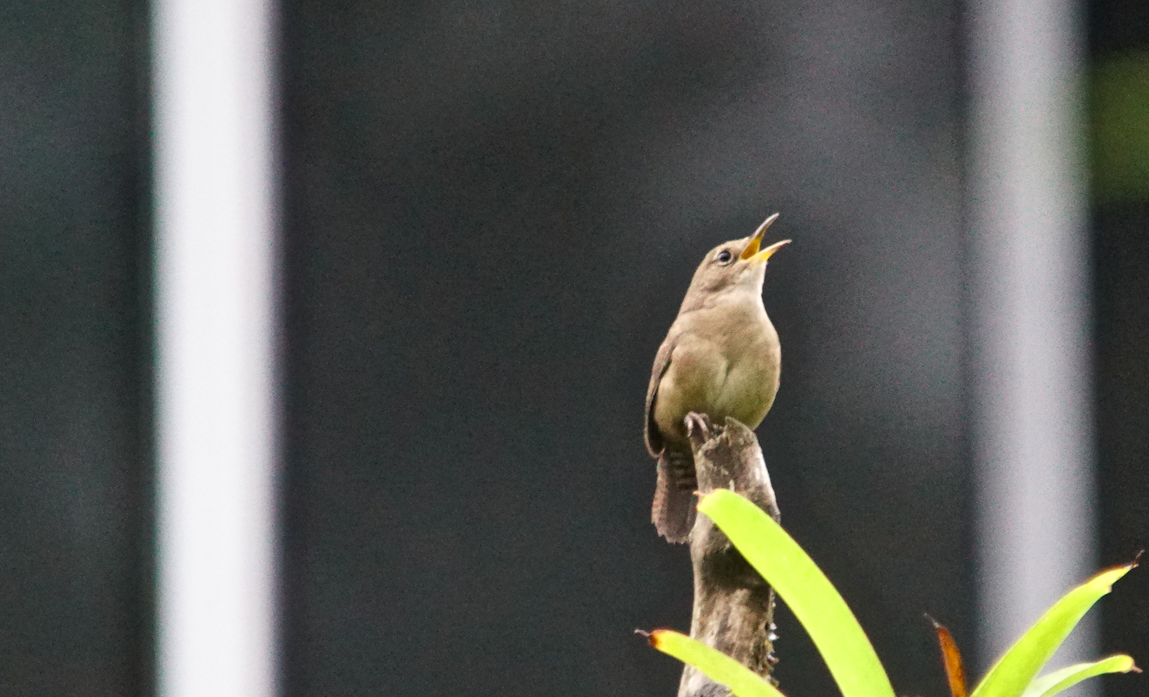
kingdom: Animalia
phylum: Chordata
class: Aves
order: Passeriformes
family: Troglodytidae
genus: Troglodytes
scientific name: Troglodytes aedon
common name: House wren
